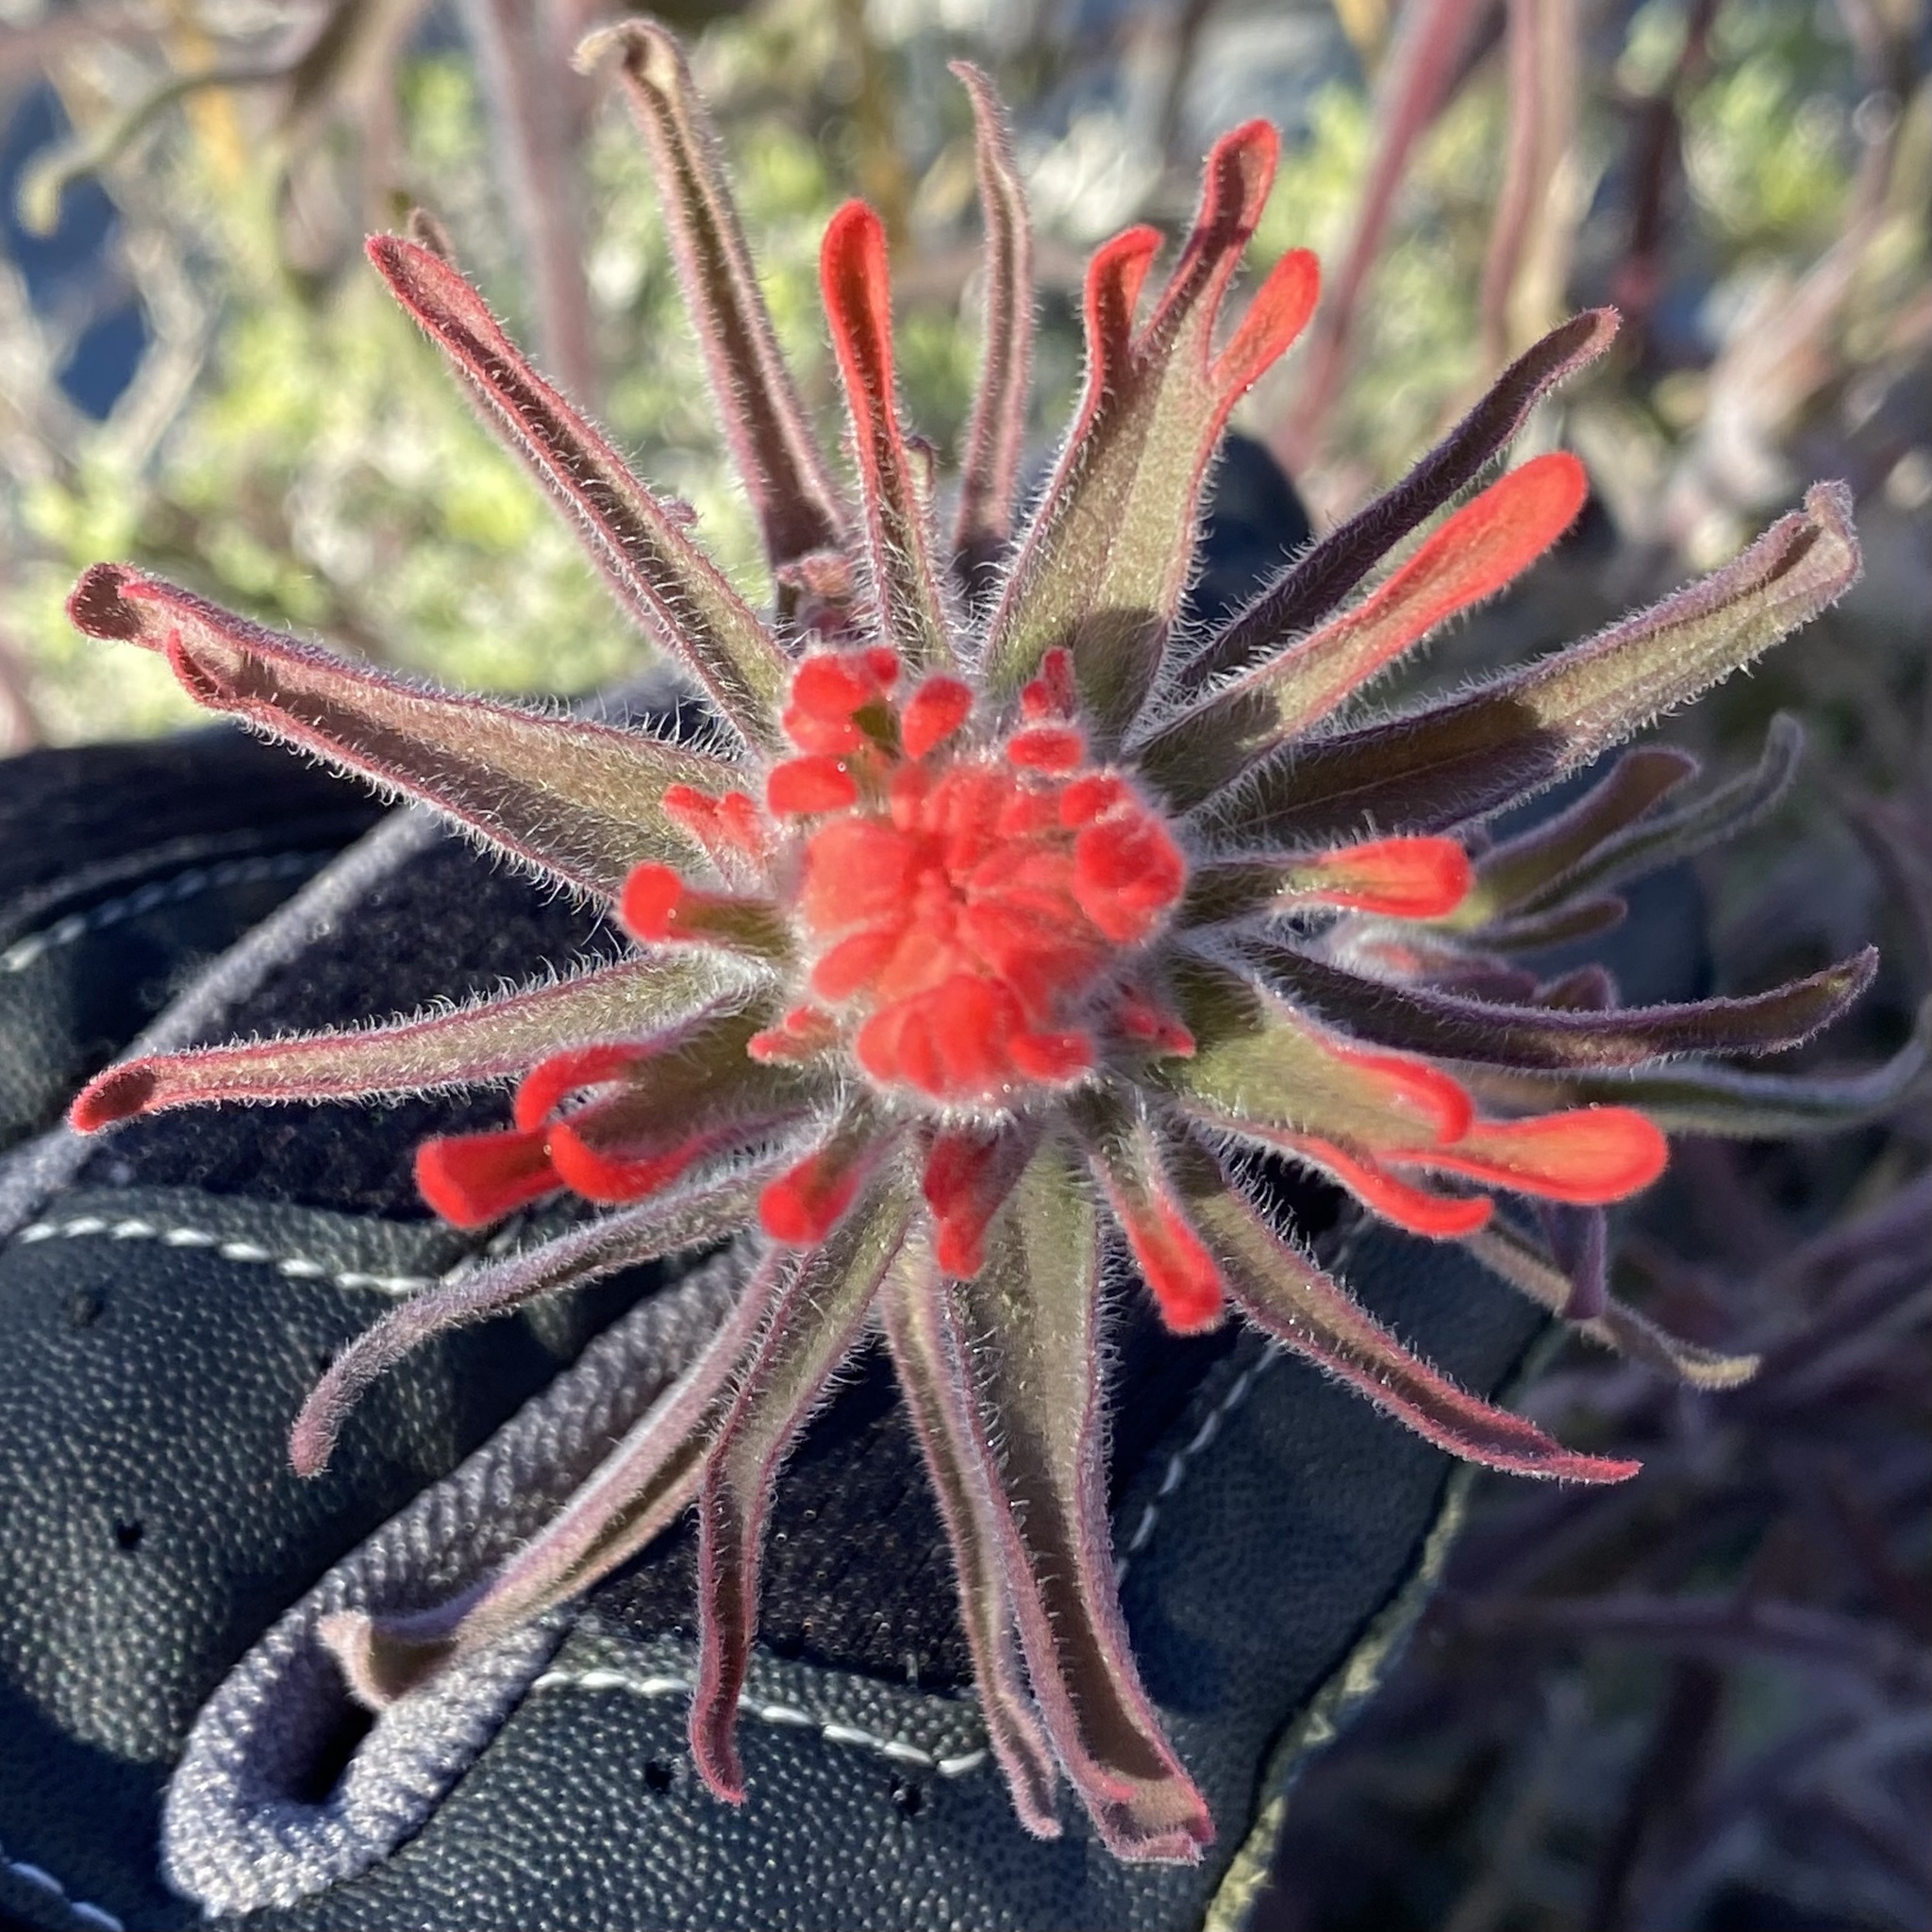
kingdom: Plantae
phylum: Tracheophyta
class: Magnoliopsida
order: Lamiales
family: Orobanchaceae
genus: Castilleja
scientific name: Castilleja chromosa
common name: Desert paintbrush
